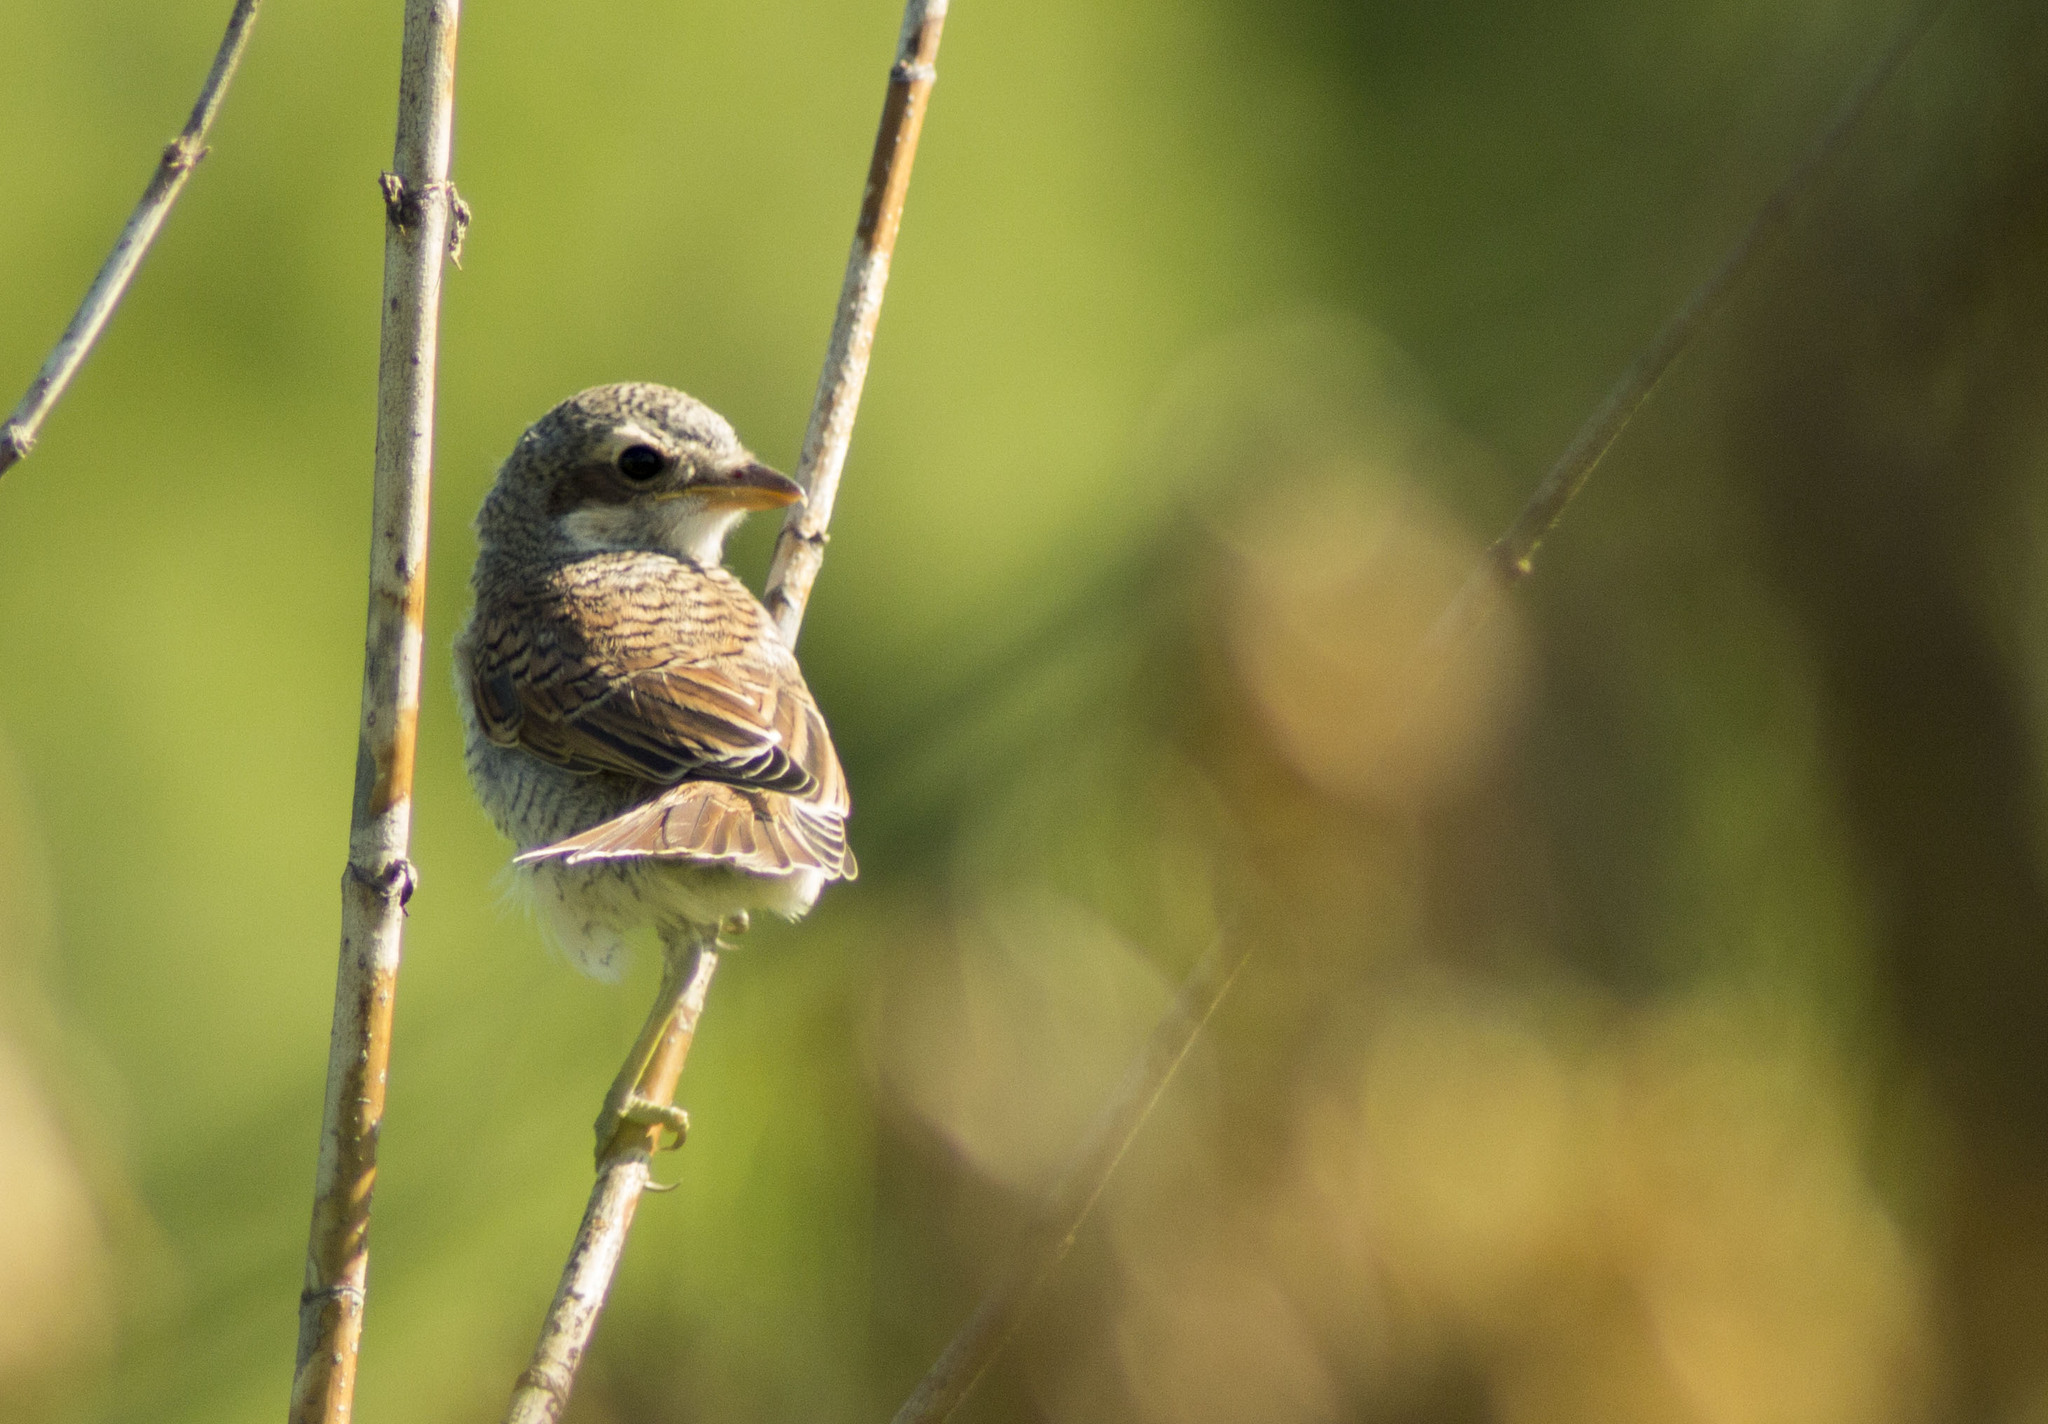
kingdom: Animalia
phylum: Chordata
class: Aves
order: Passeriformes
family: Laniidae
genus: Lanius
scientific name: Lanius collurio
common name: Red-backed shrike
